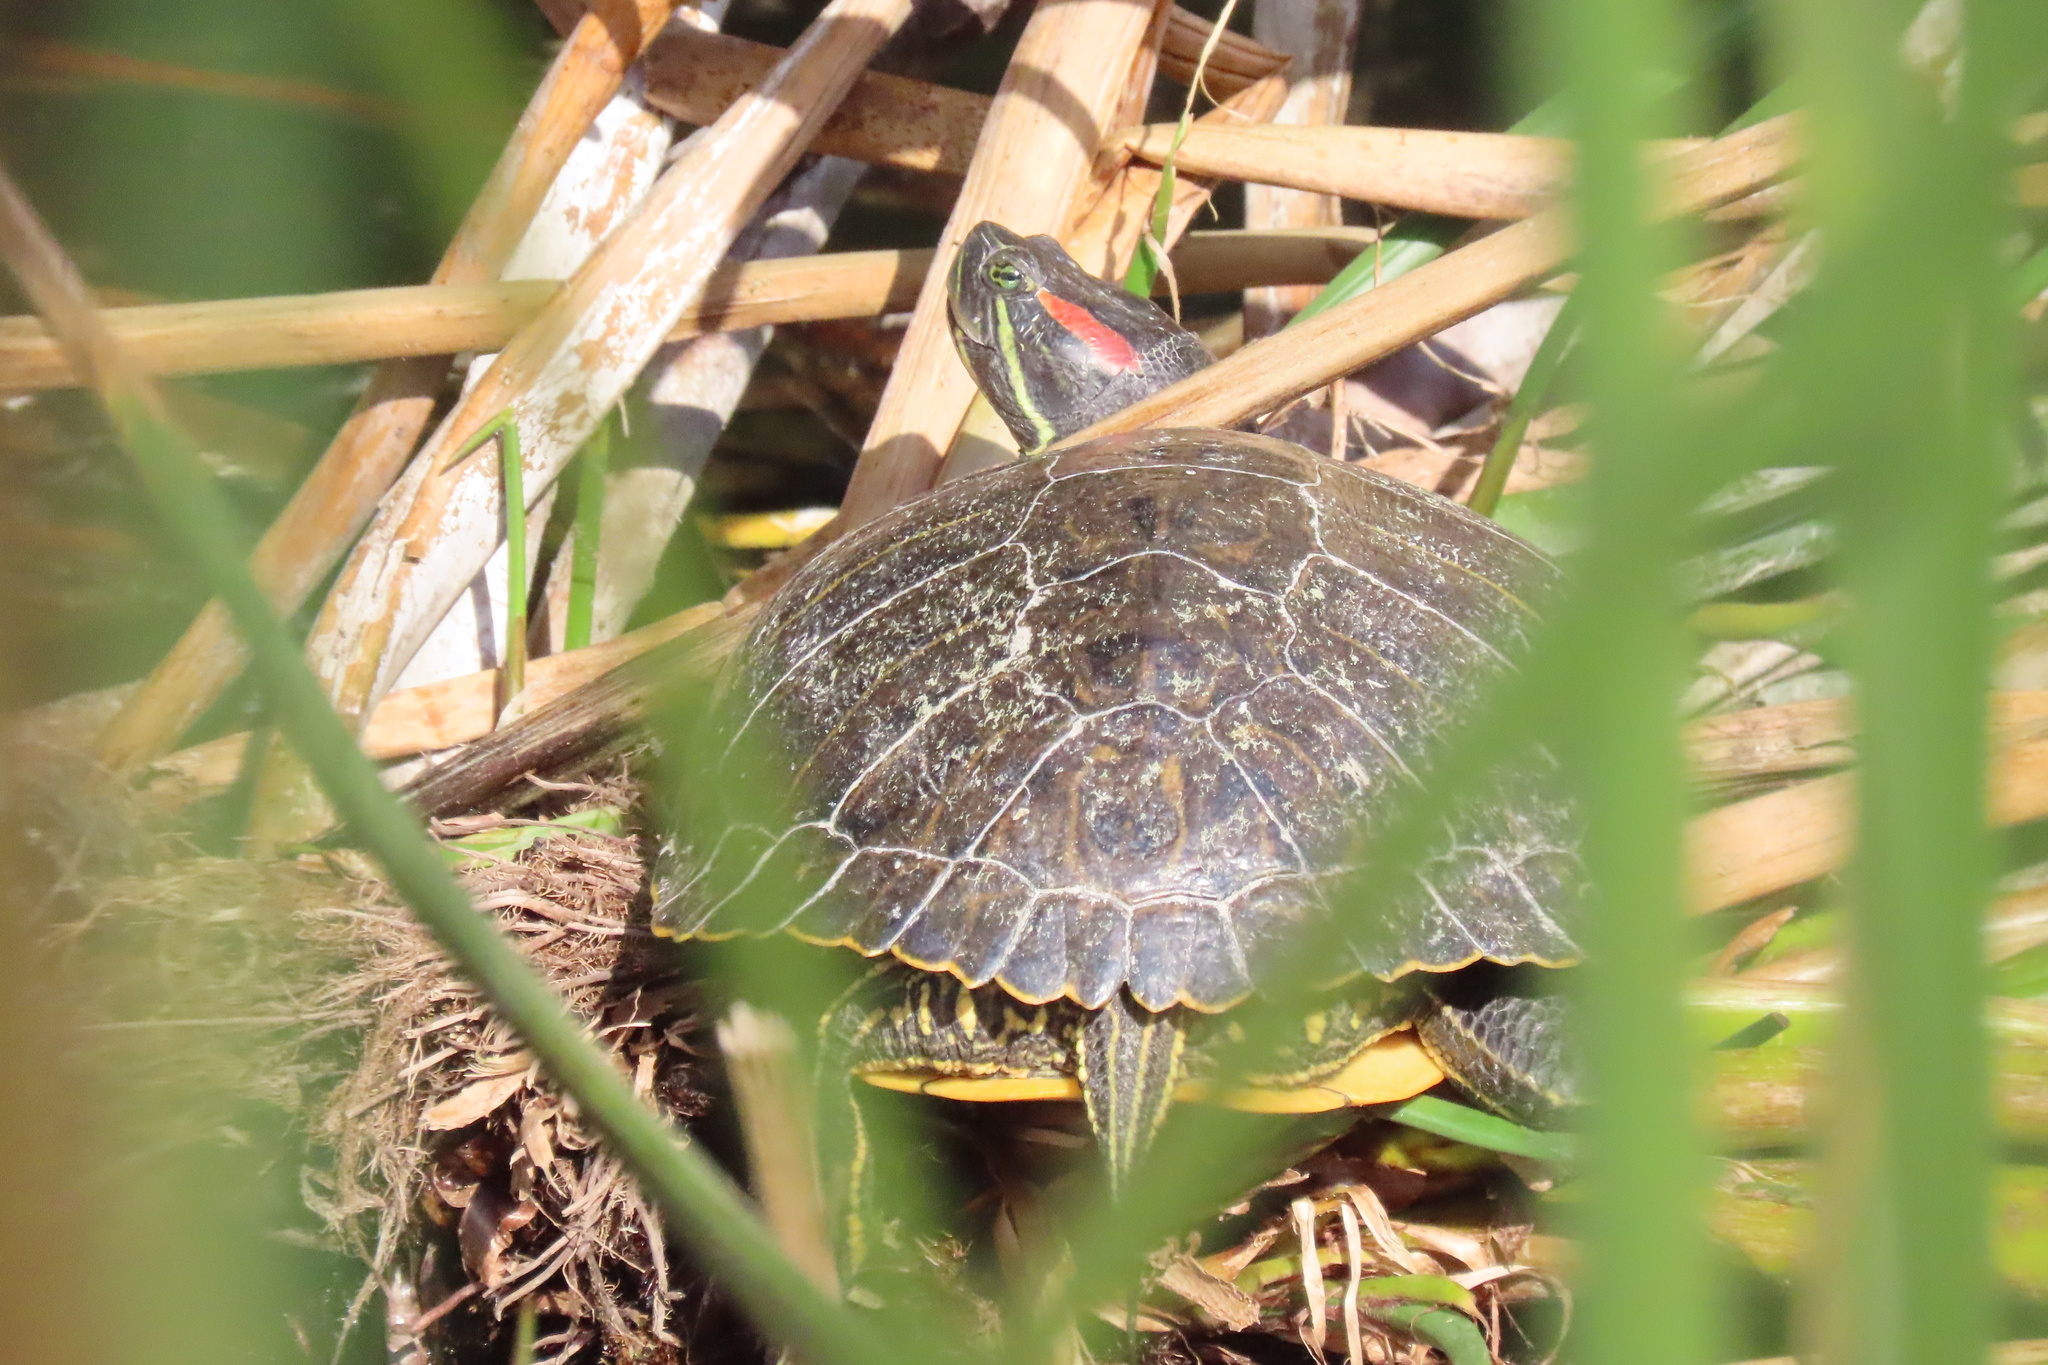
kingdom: Animalia
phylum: Chordata
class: Testudines
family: Emydidae
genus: Trachemys
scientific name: Trachemys scripta
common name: Slider
